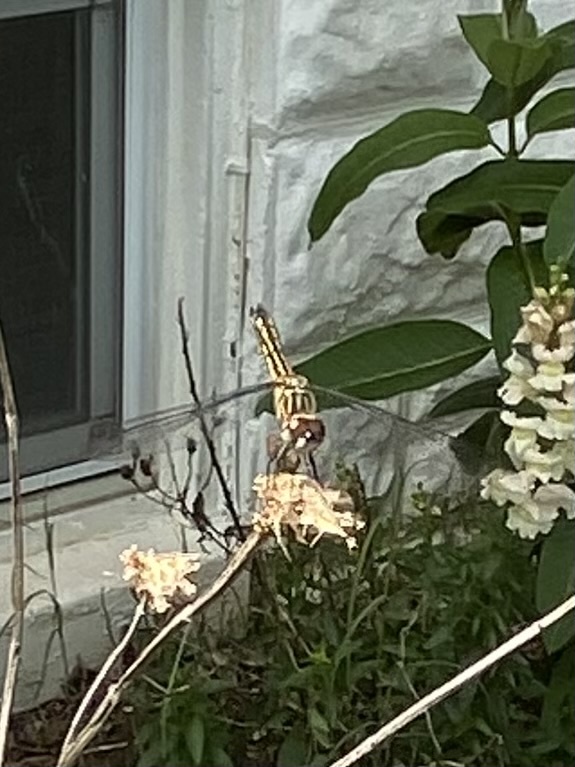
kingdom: Animalia
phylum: Arthropoda
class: Insecta
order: Odonata
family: Libellulidae
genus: Pachydiplax
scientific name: Pachydiplax longipennis
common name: Blue dasher
